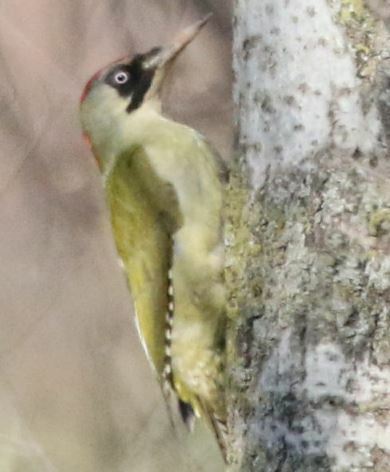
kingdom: Animalia
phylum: Chordata
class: Aves
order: Piciformes
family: Picidae
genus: Picus
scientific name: Picus viridis
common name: European green woodpecker
